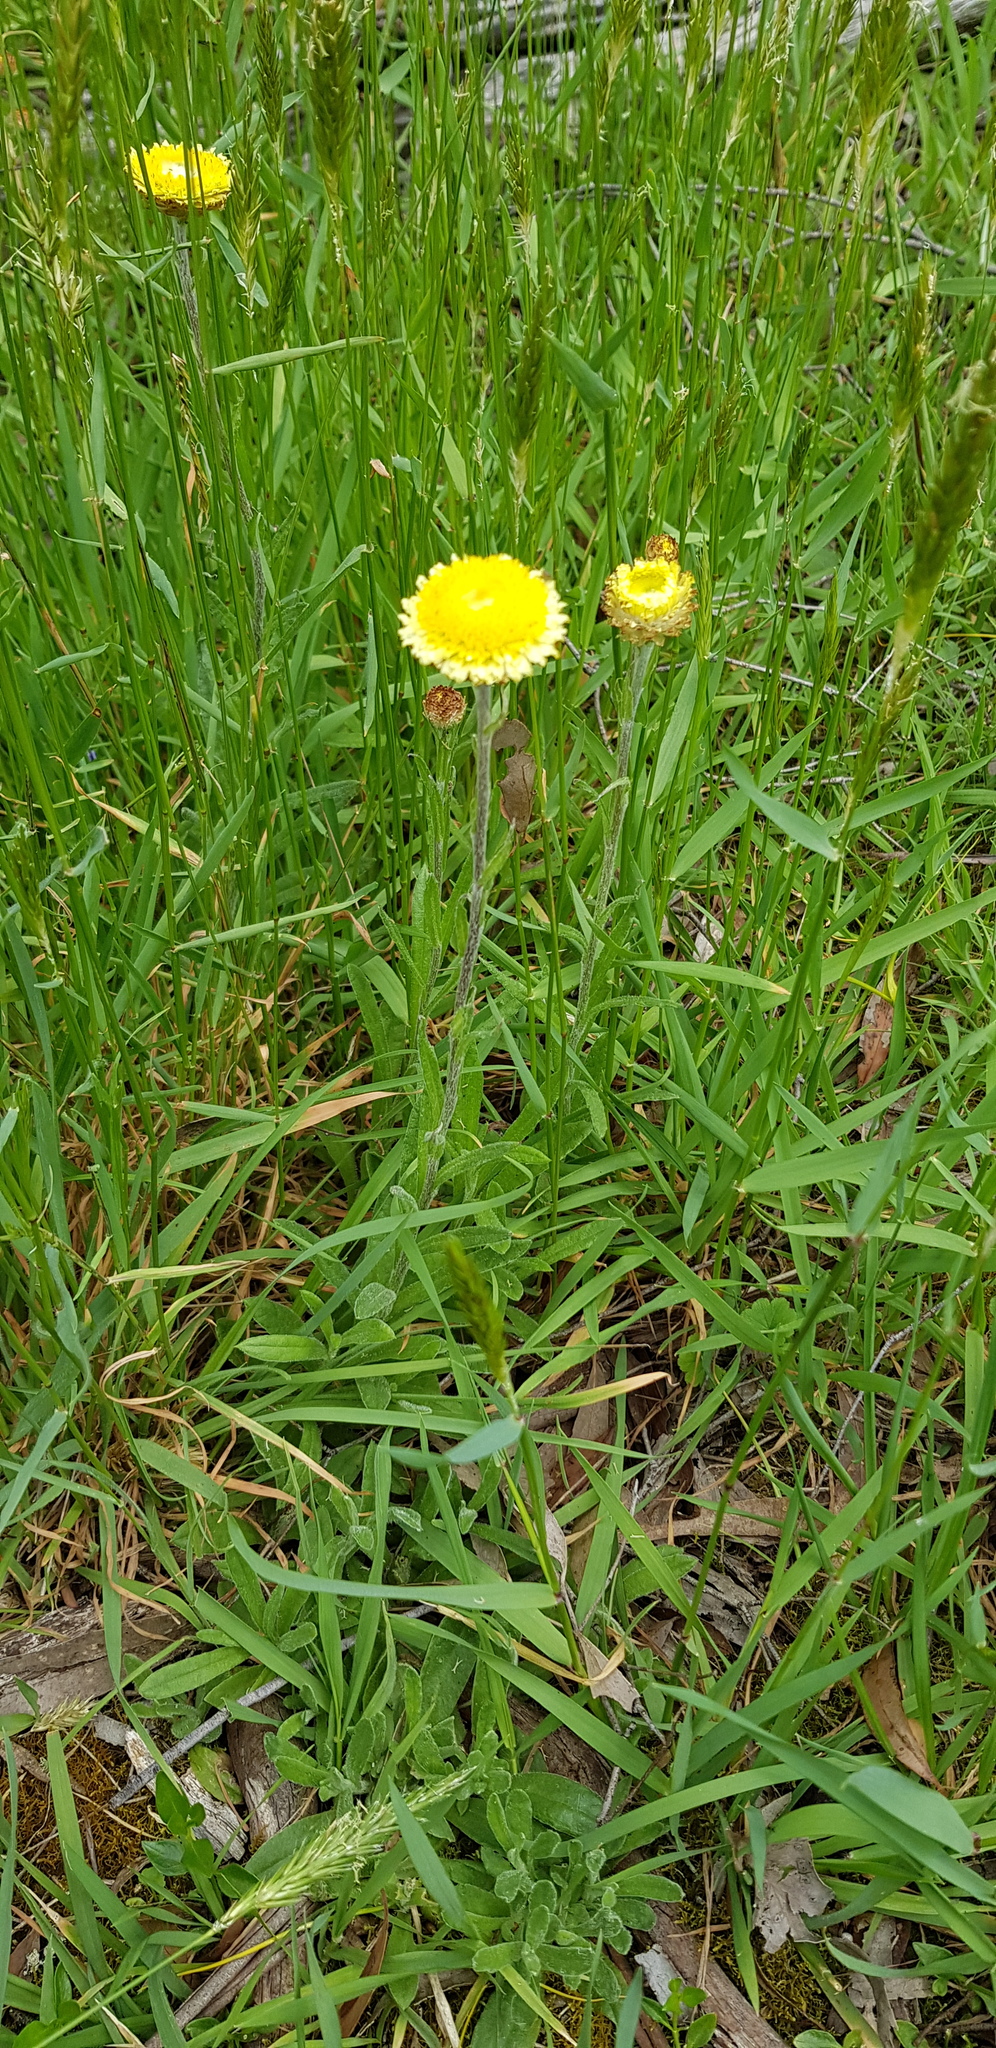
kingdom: Plantae
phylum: Tracheophyta
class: Magnoliopsida
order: Asterales
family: Asteraceae
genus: Coronidium
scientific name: Coronidium scorpioides
